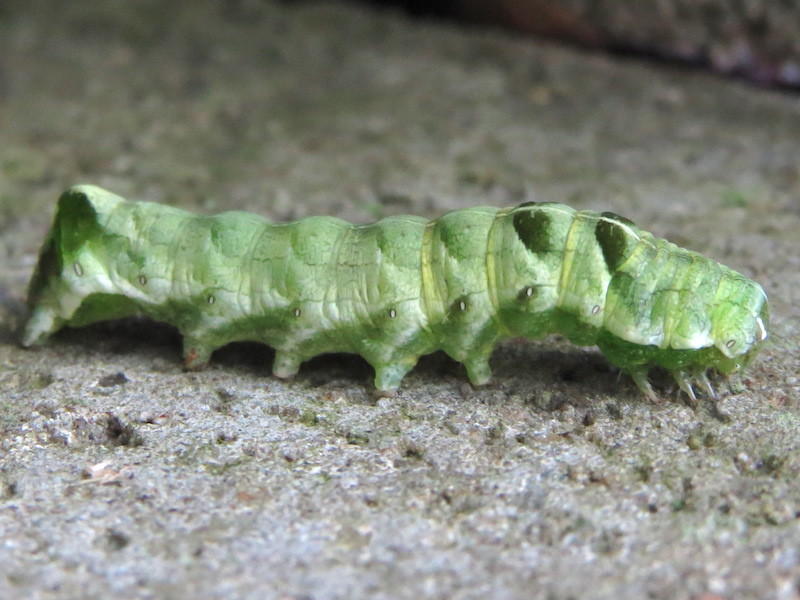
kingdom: Animalia
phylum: Arthropoda
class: Insecta
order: Lepidoptera
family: Noctuidae
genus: Melanchra
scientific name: Melanchra adjuncta
